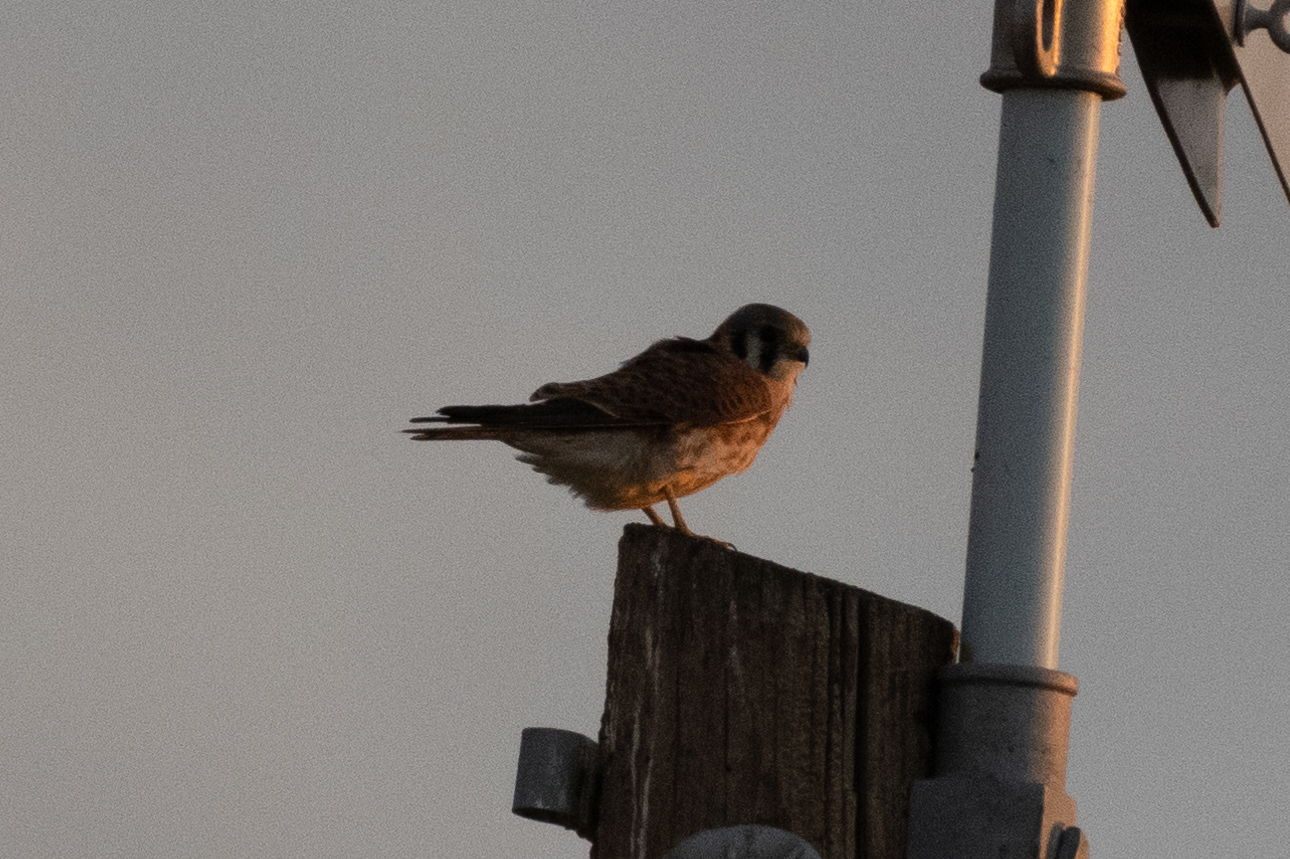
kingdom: Animalia
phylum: Chordata
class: Aves
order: Falconiformes
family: Falconidae
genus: Falco
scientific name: Falco sparverius
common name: American kestrel
